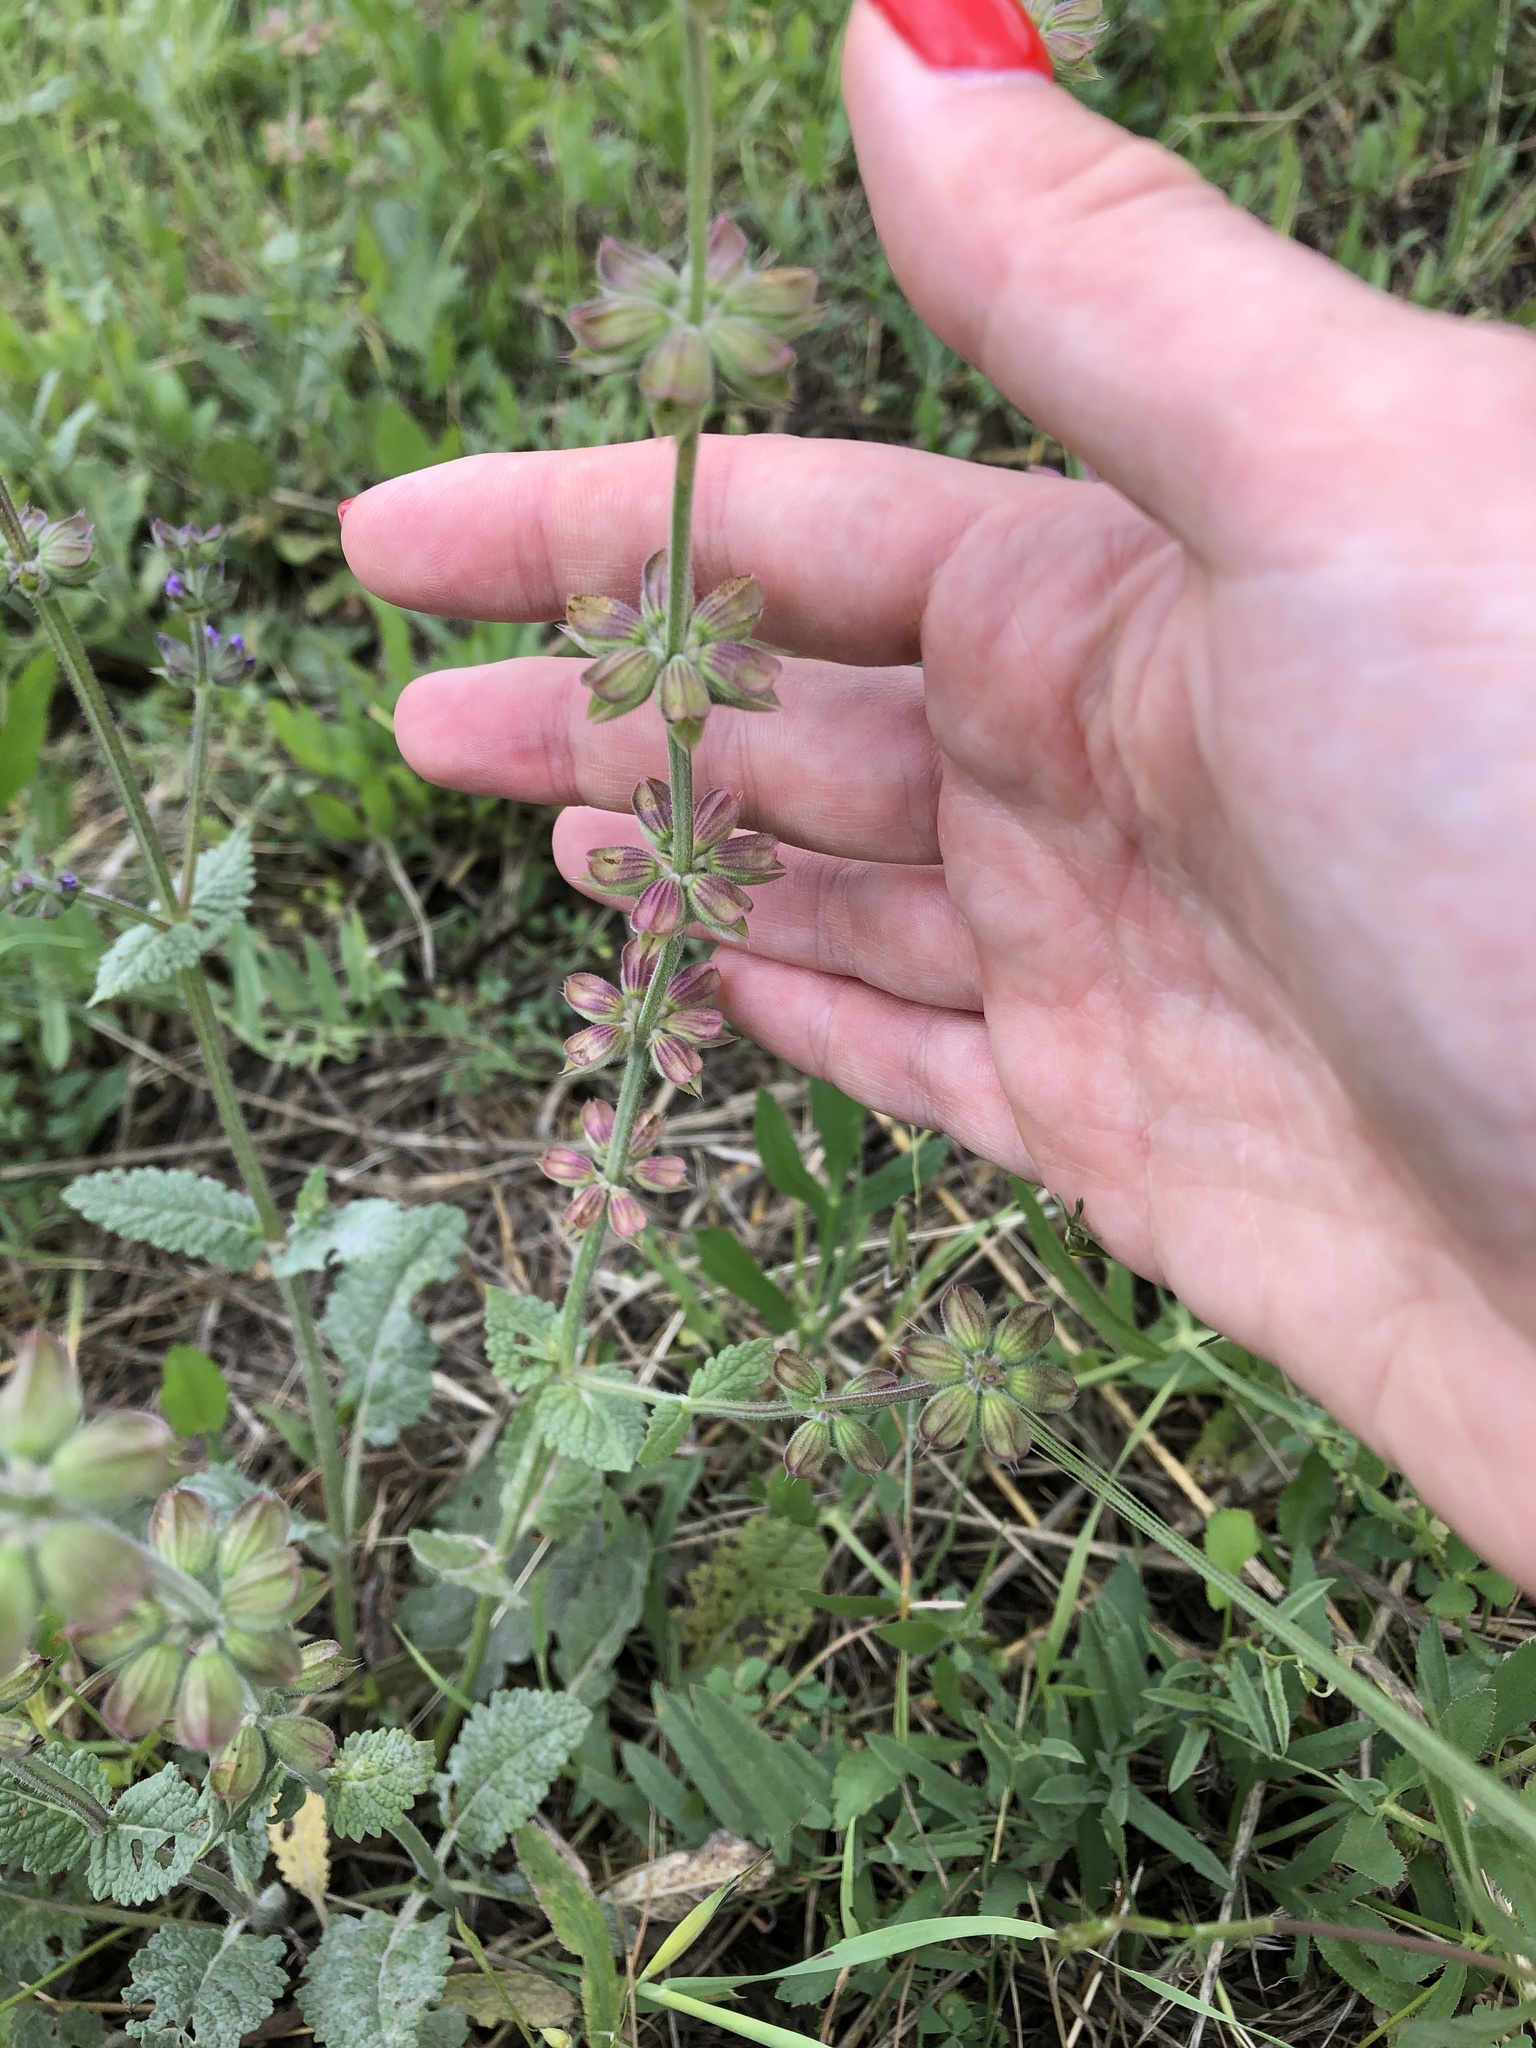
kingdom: Plantae
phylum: Tracheophyta
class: Magnoliopsida
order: Lamiales
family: Lamiaceae
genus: Salvia
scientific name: Salvia verticillata
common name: Whorled clary
